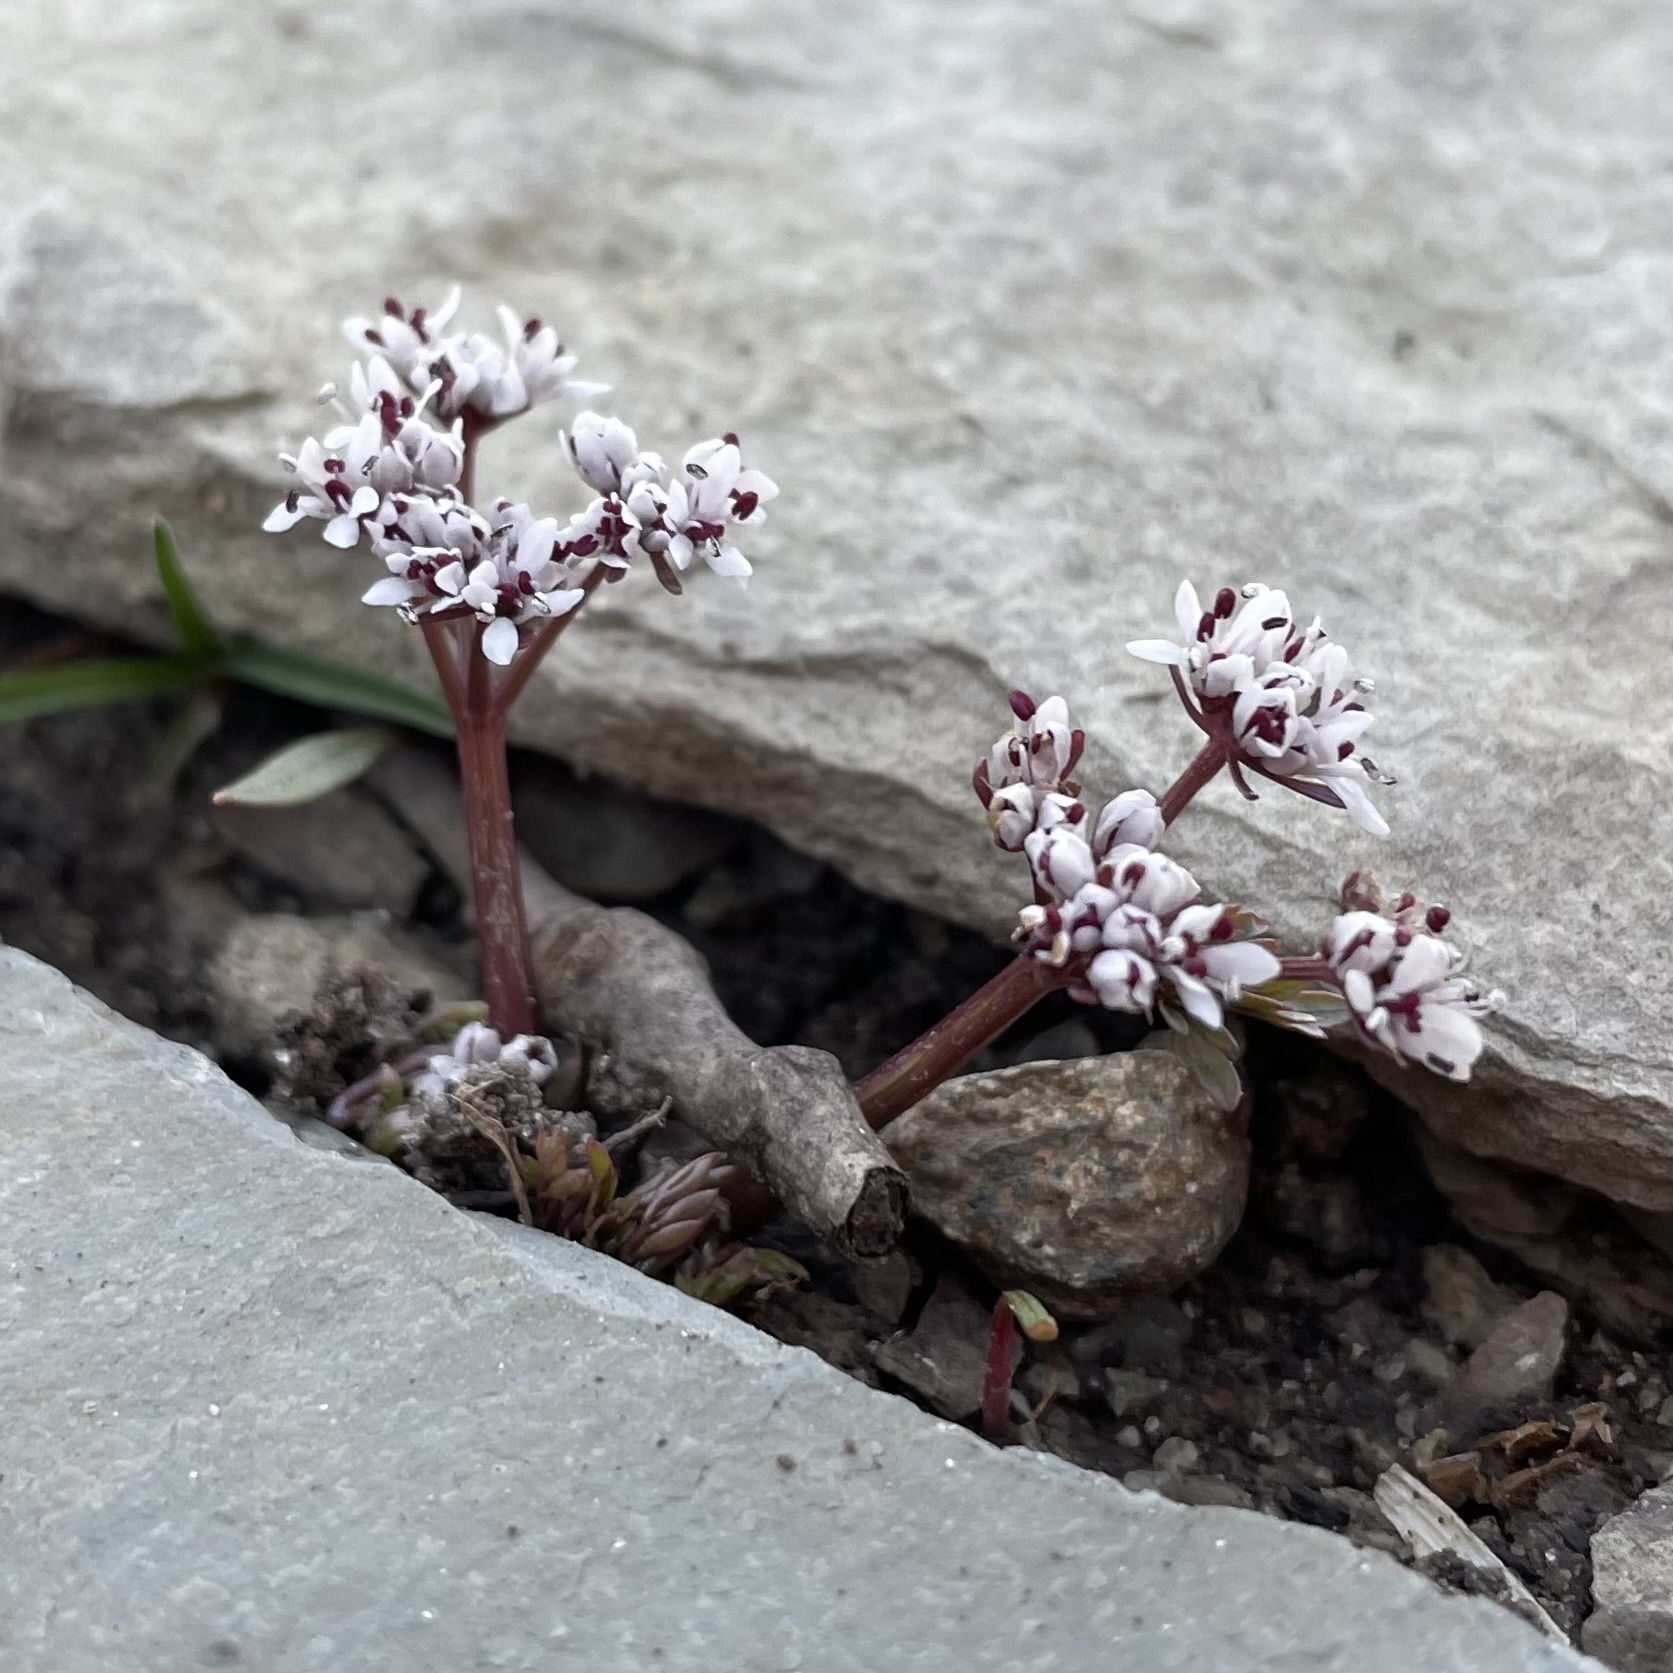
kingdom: Plantae
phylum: Tracheophyta
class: Magnoliopsida
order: Apiales
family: Apiaceae
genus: Erigenia
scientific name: Erigenia bulbosa
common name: Pepper-and-salt
